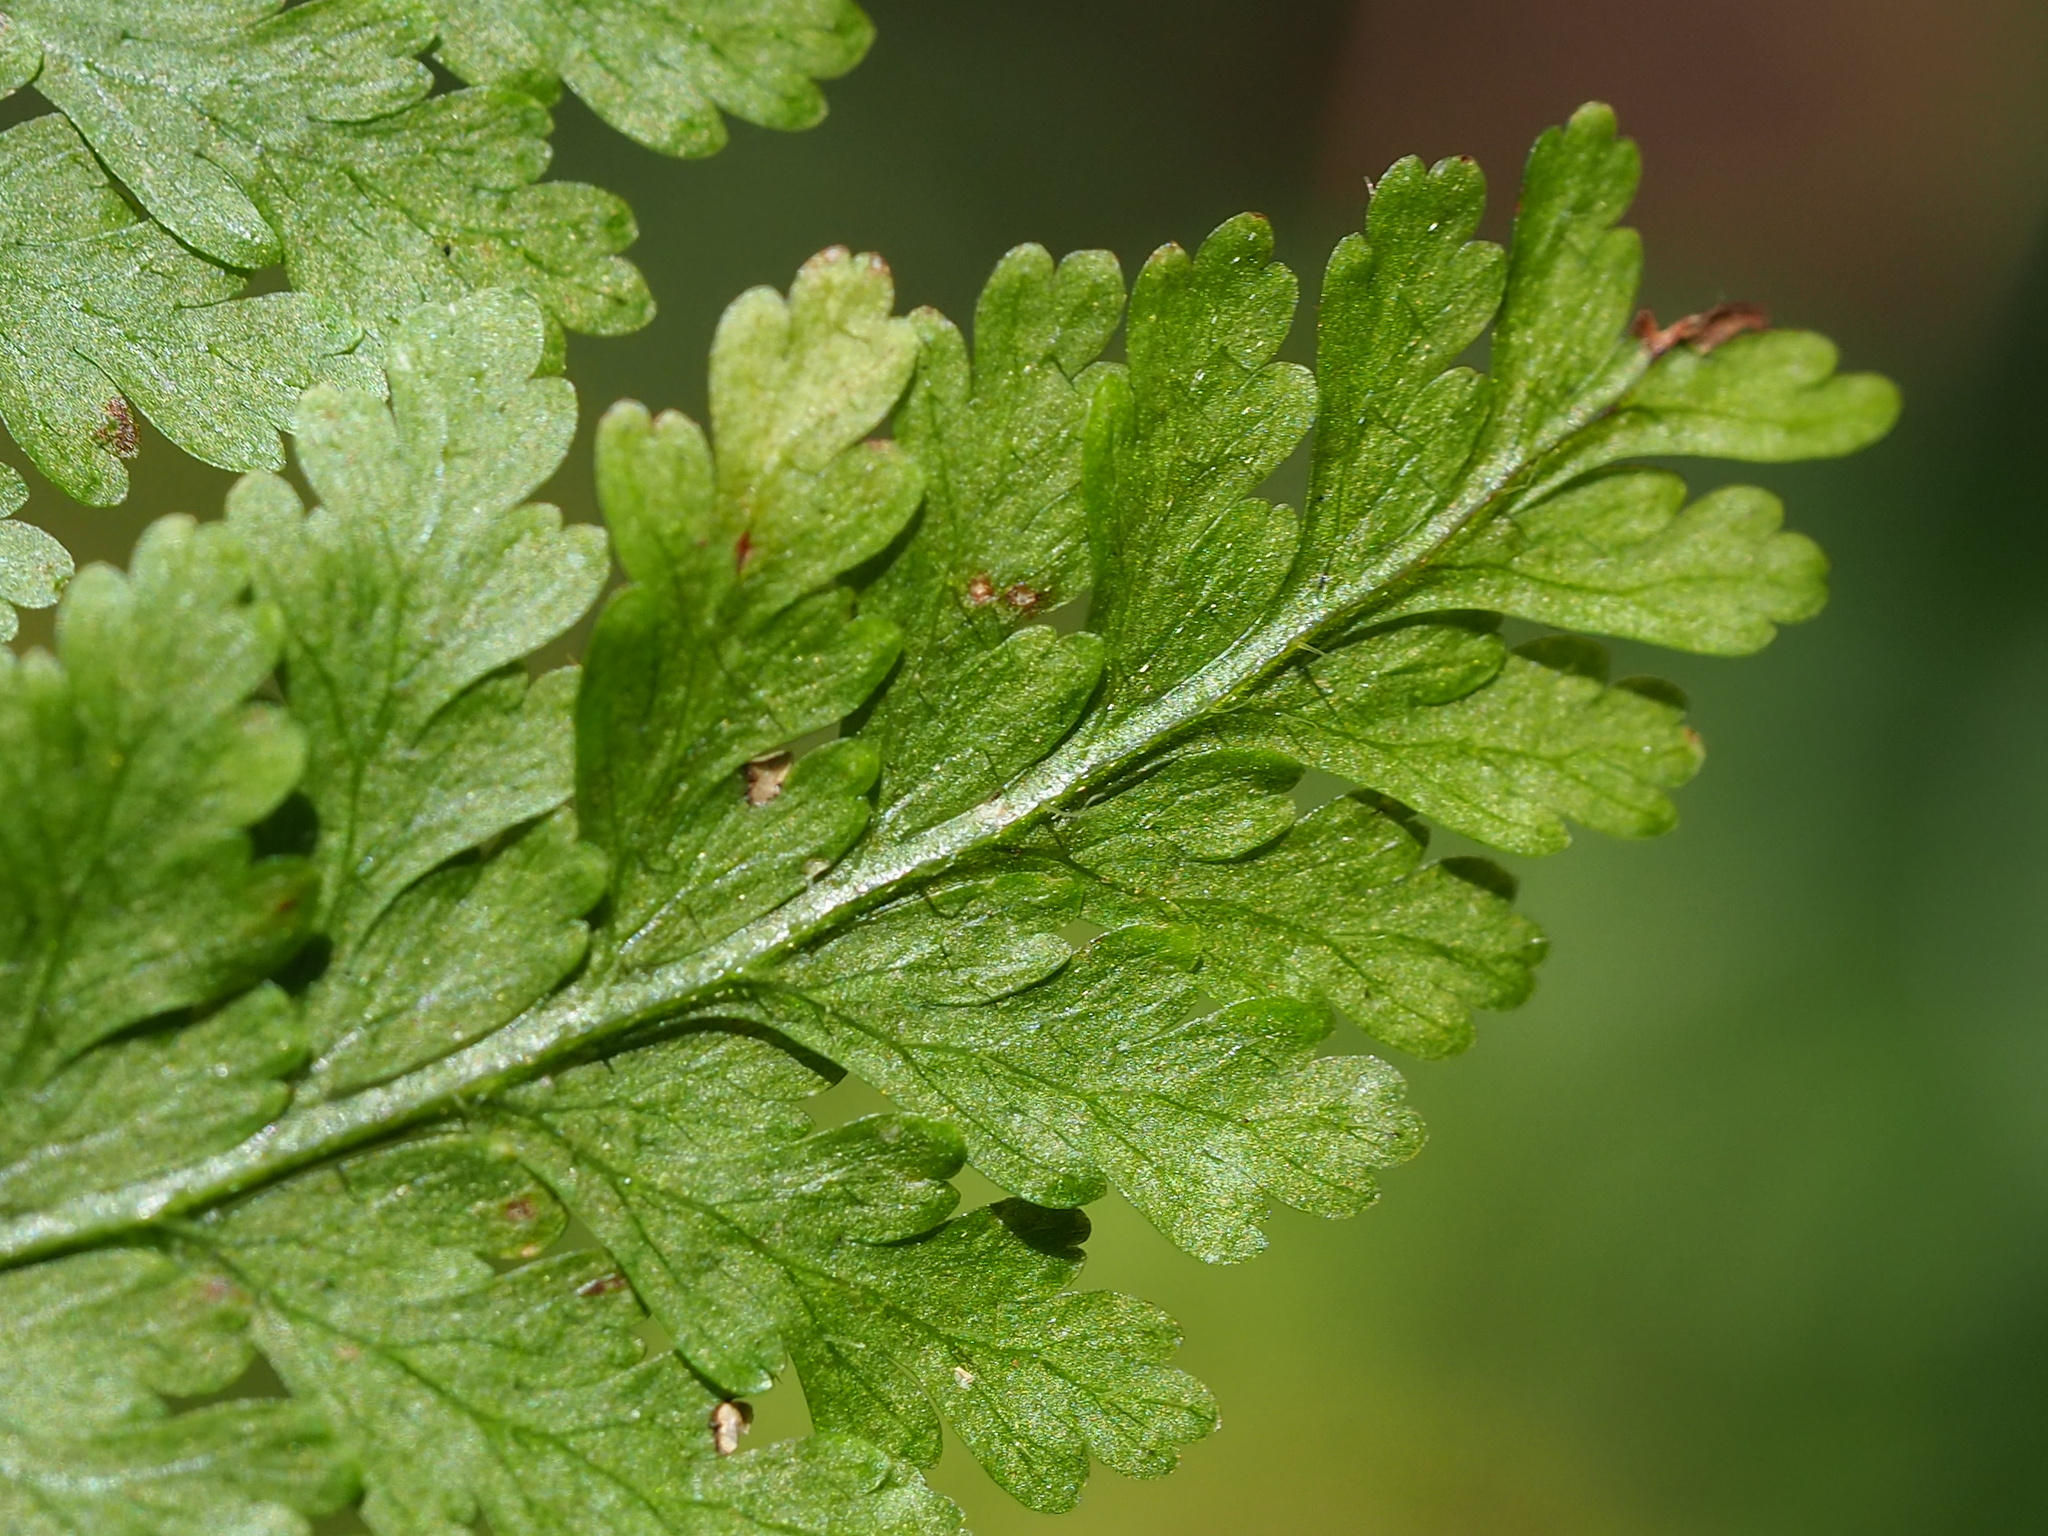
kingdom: Plantae
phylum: Tracheophyta
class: Polypodiopsida
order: Polypodiales
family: Dennstaedtiaceae
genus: Sitobolium
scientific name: Sitobolium zeylanicum
